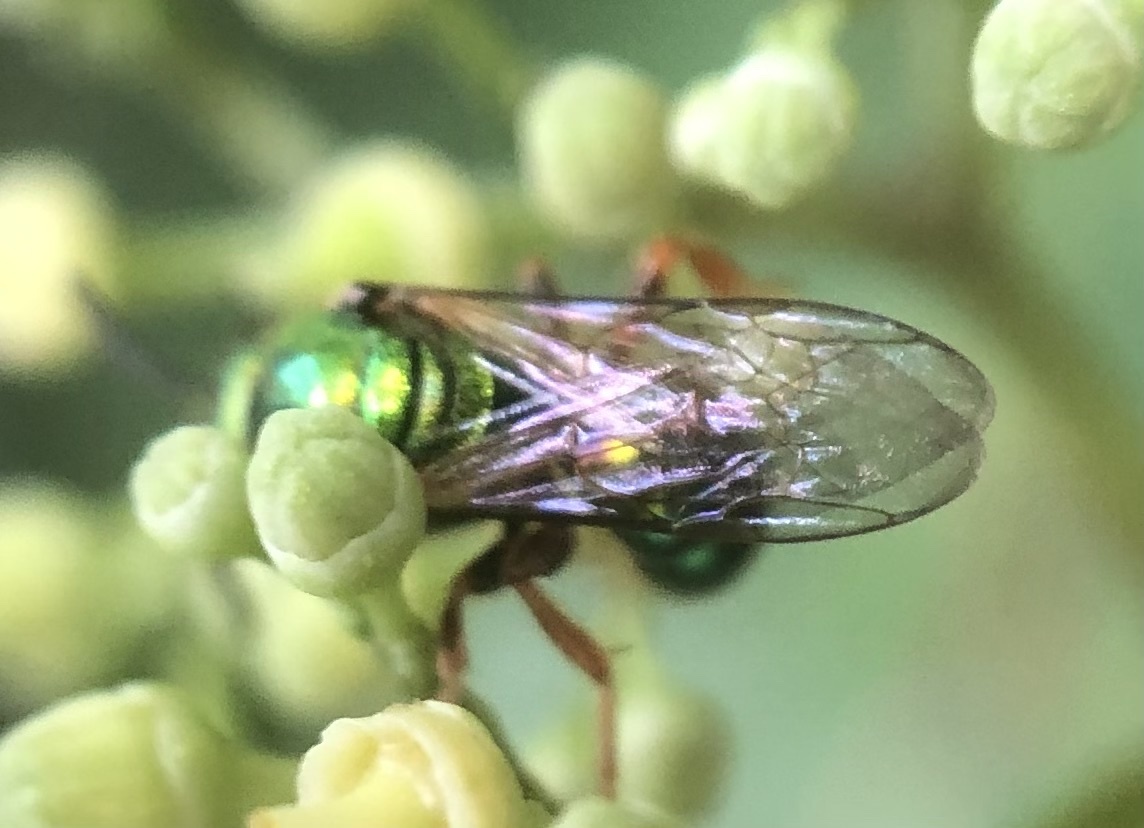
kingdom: Animalia
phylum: Arthropoda
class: Insecta
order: Hymenoptera
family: Halictidae
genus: Augochlora
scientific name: Augochlora pura
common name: Pure green sweat bee
